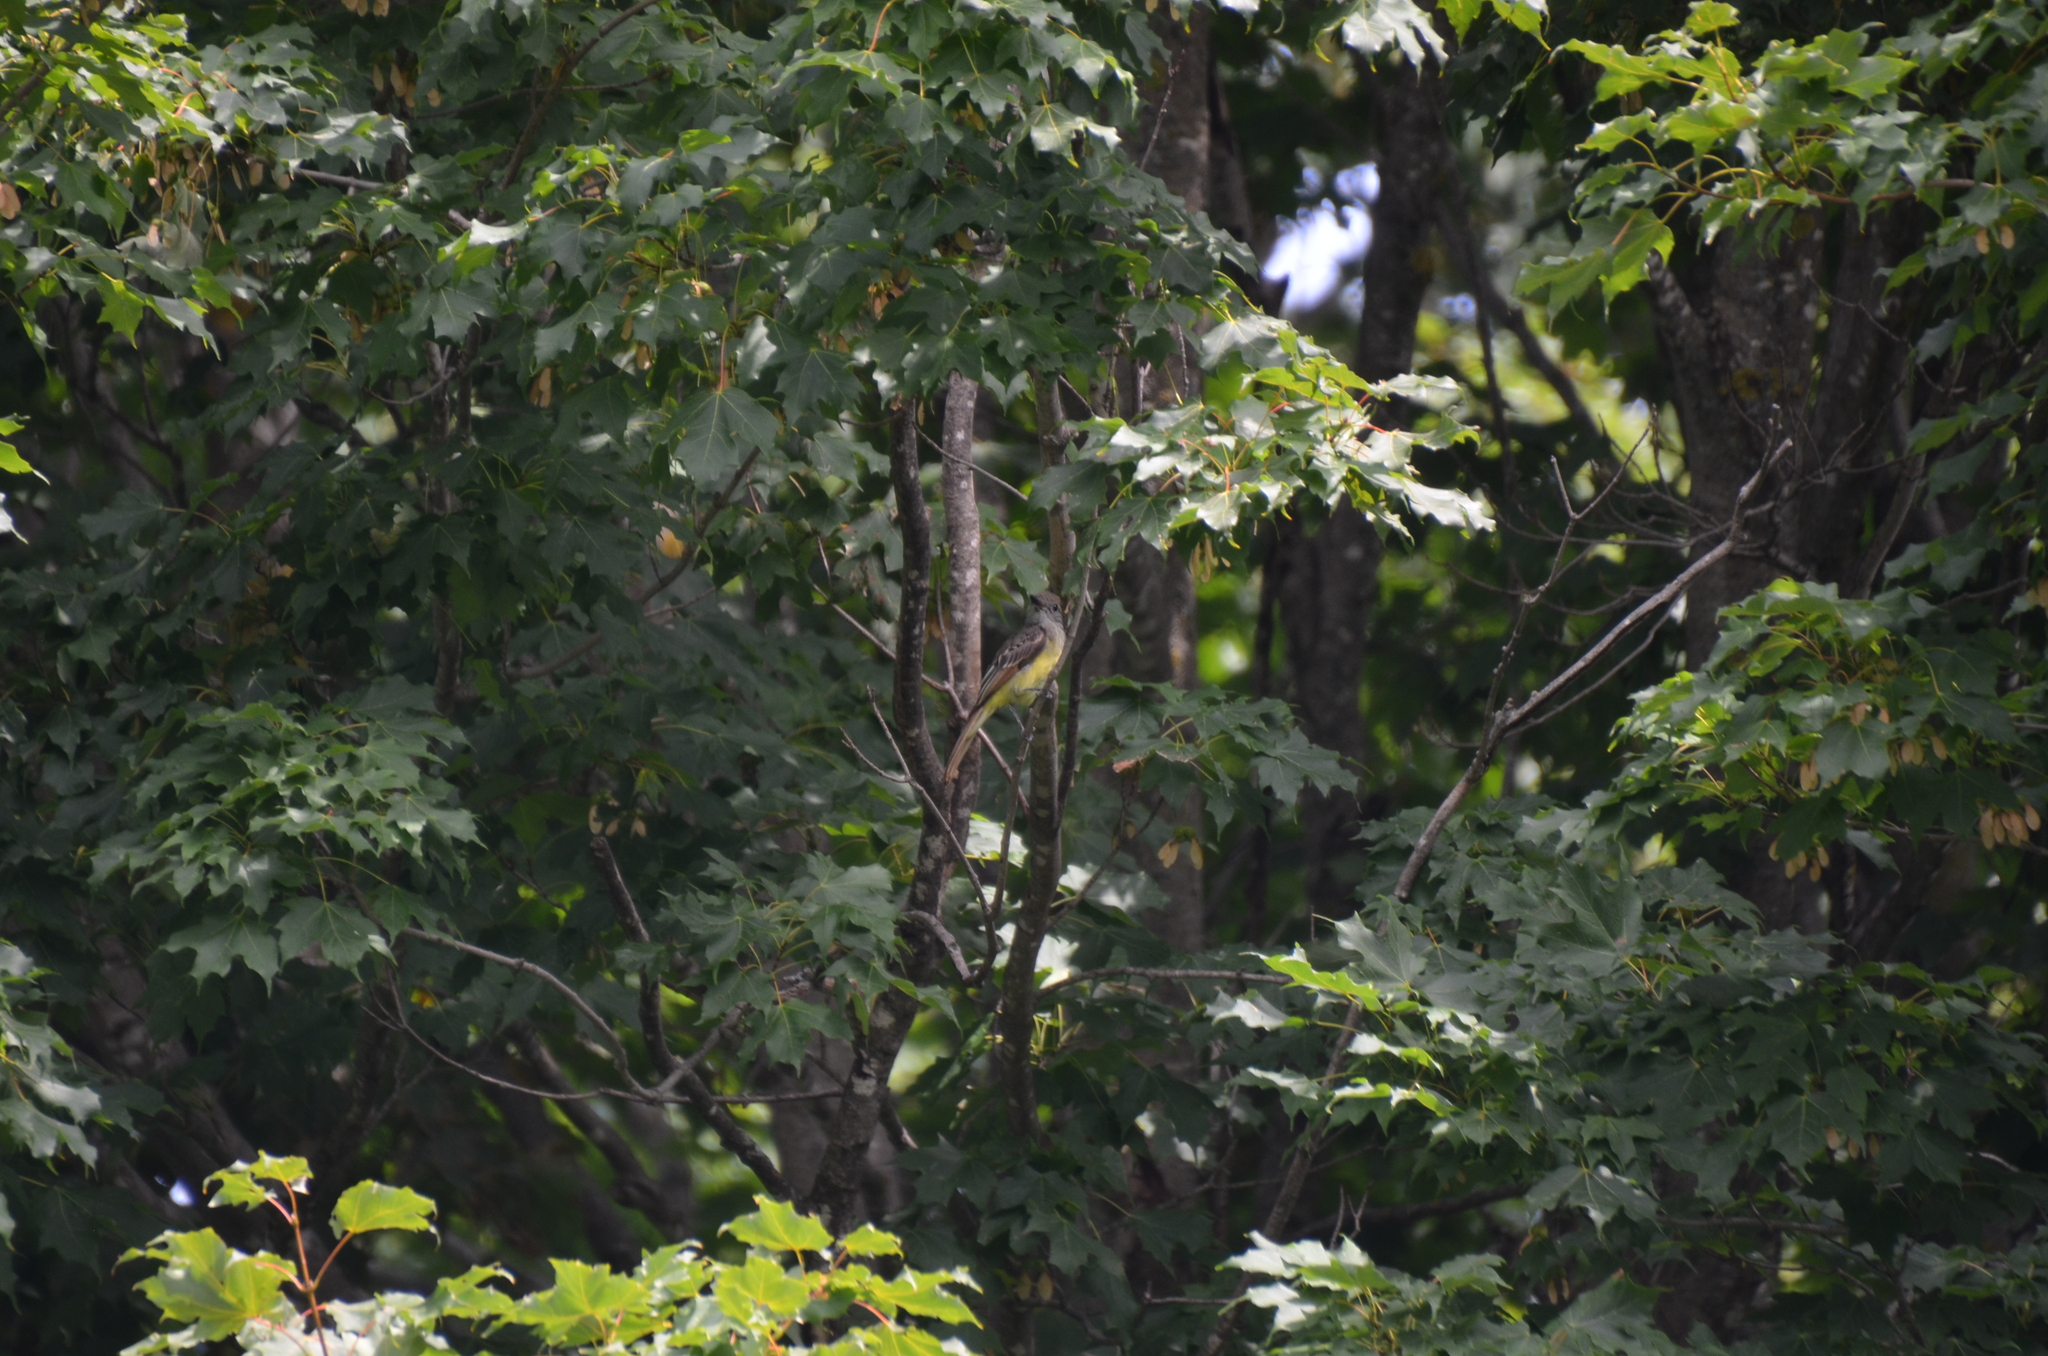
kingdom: Animalia
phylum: Chordata
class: Aves
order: Passeriformes
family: Tyrannidae
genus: Myiarchus
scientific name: Myiarchus crinitus
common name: Great crested flycatcher
